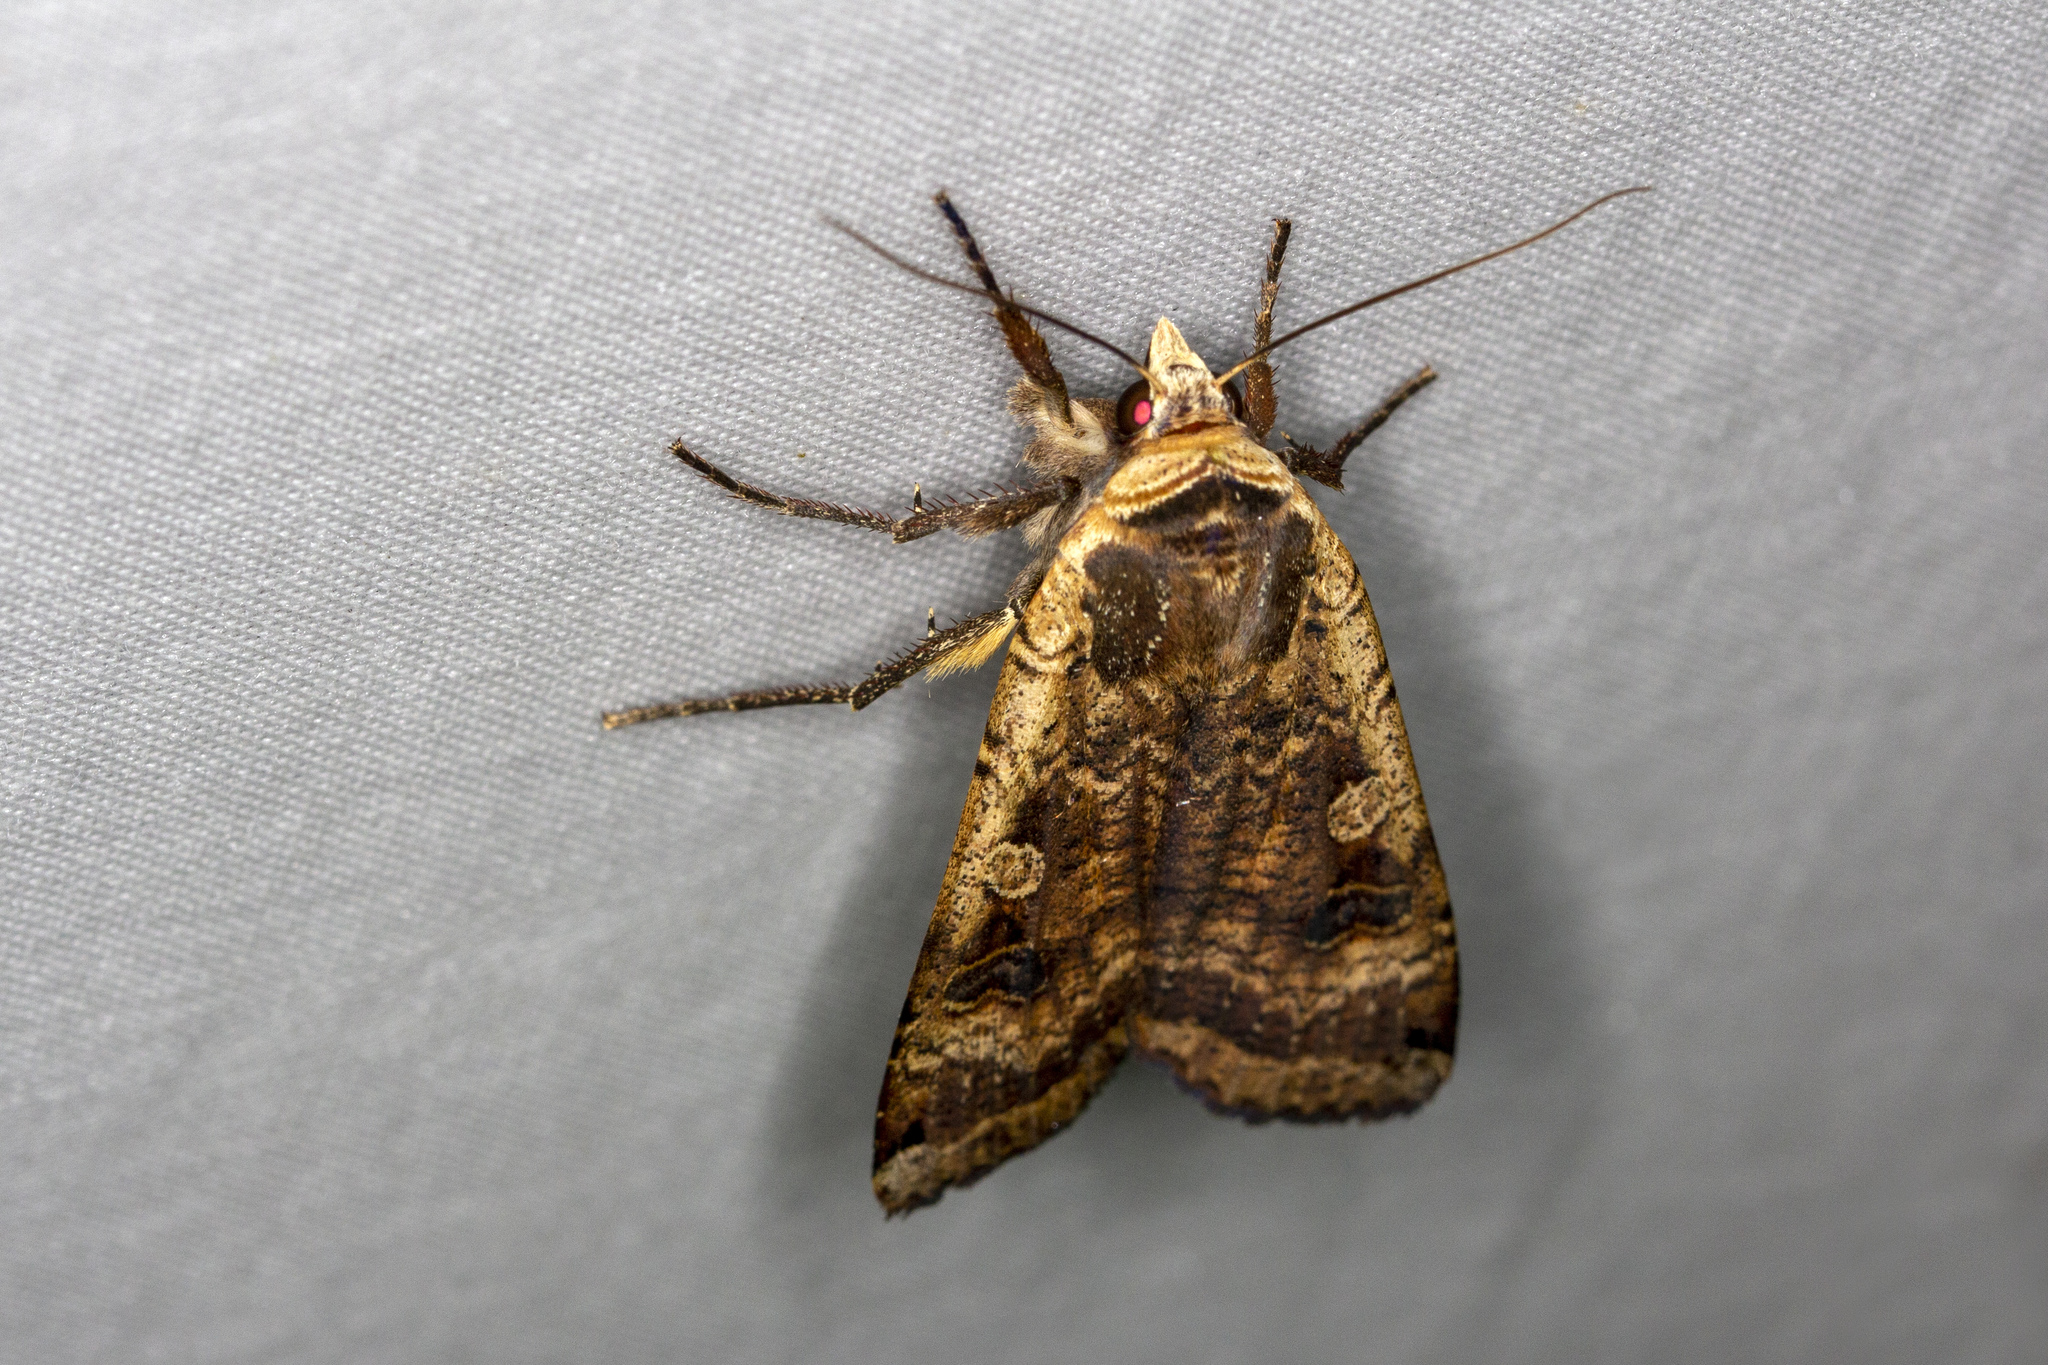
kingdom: Animalia
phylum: Arthropoda
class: Insecta
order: Lepidoptera
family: Noctuidae
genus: Noctua
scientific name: Noctua pronuba
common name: Large yellow underwing
